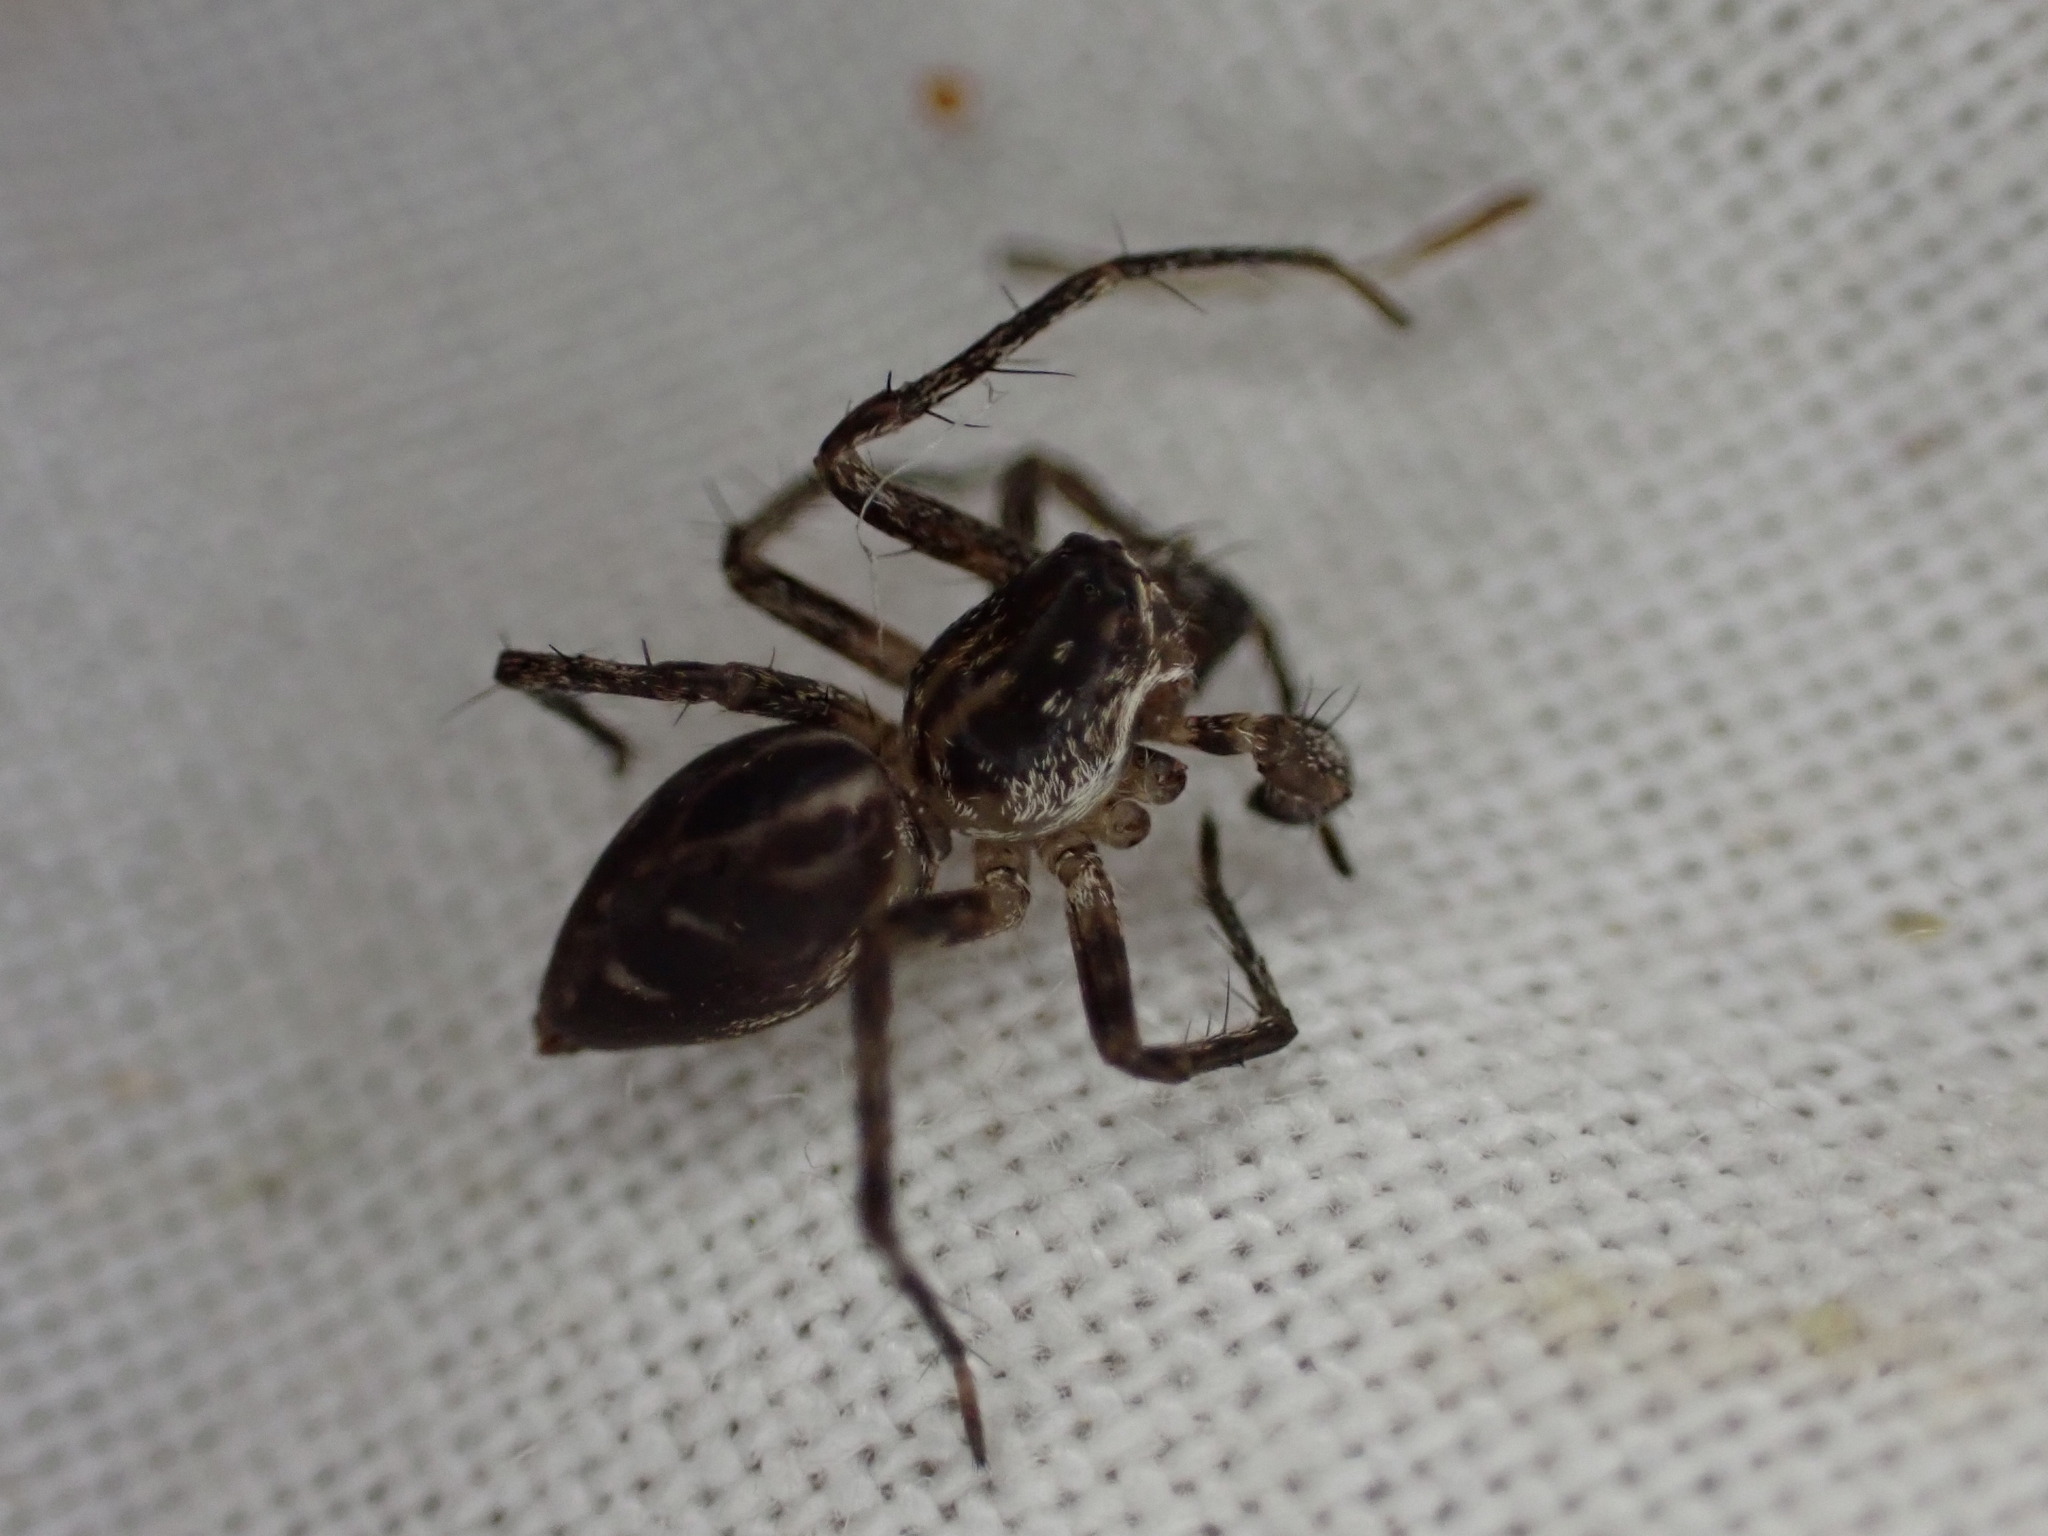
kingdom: Animalia
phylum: Arthropoda
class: Arachnida
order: Araneae
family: Oxyopidae
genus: Oxyopes
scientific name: Oxyopes heterophthalmus
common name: Lynx spider
